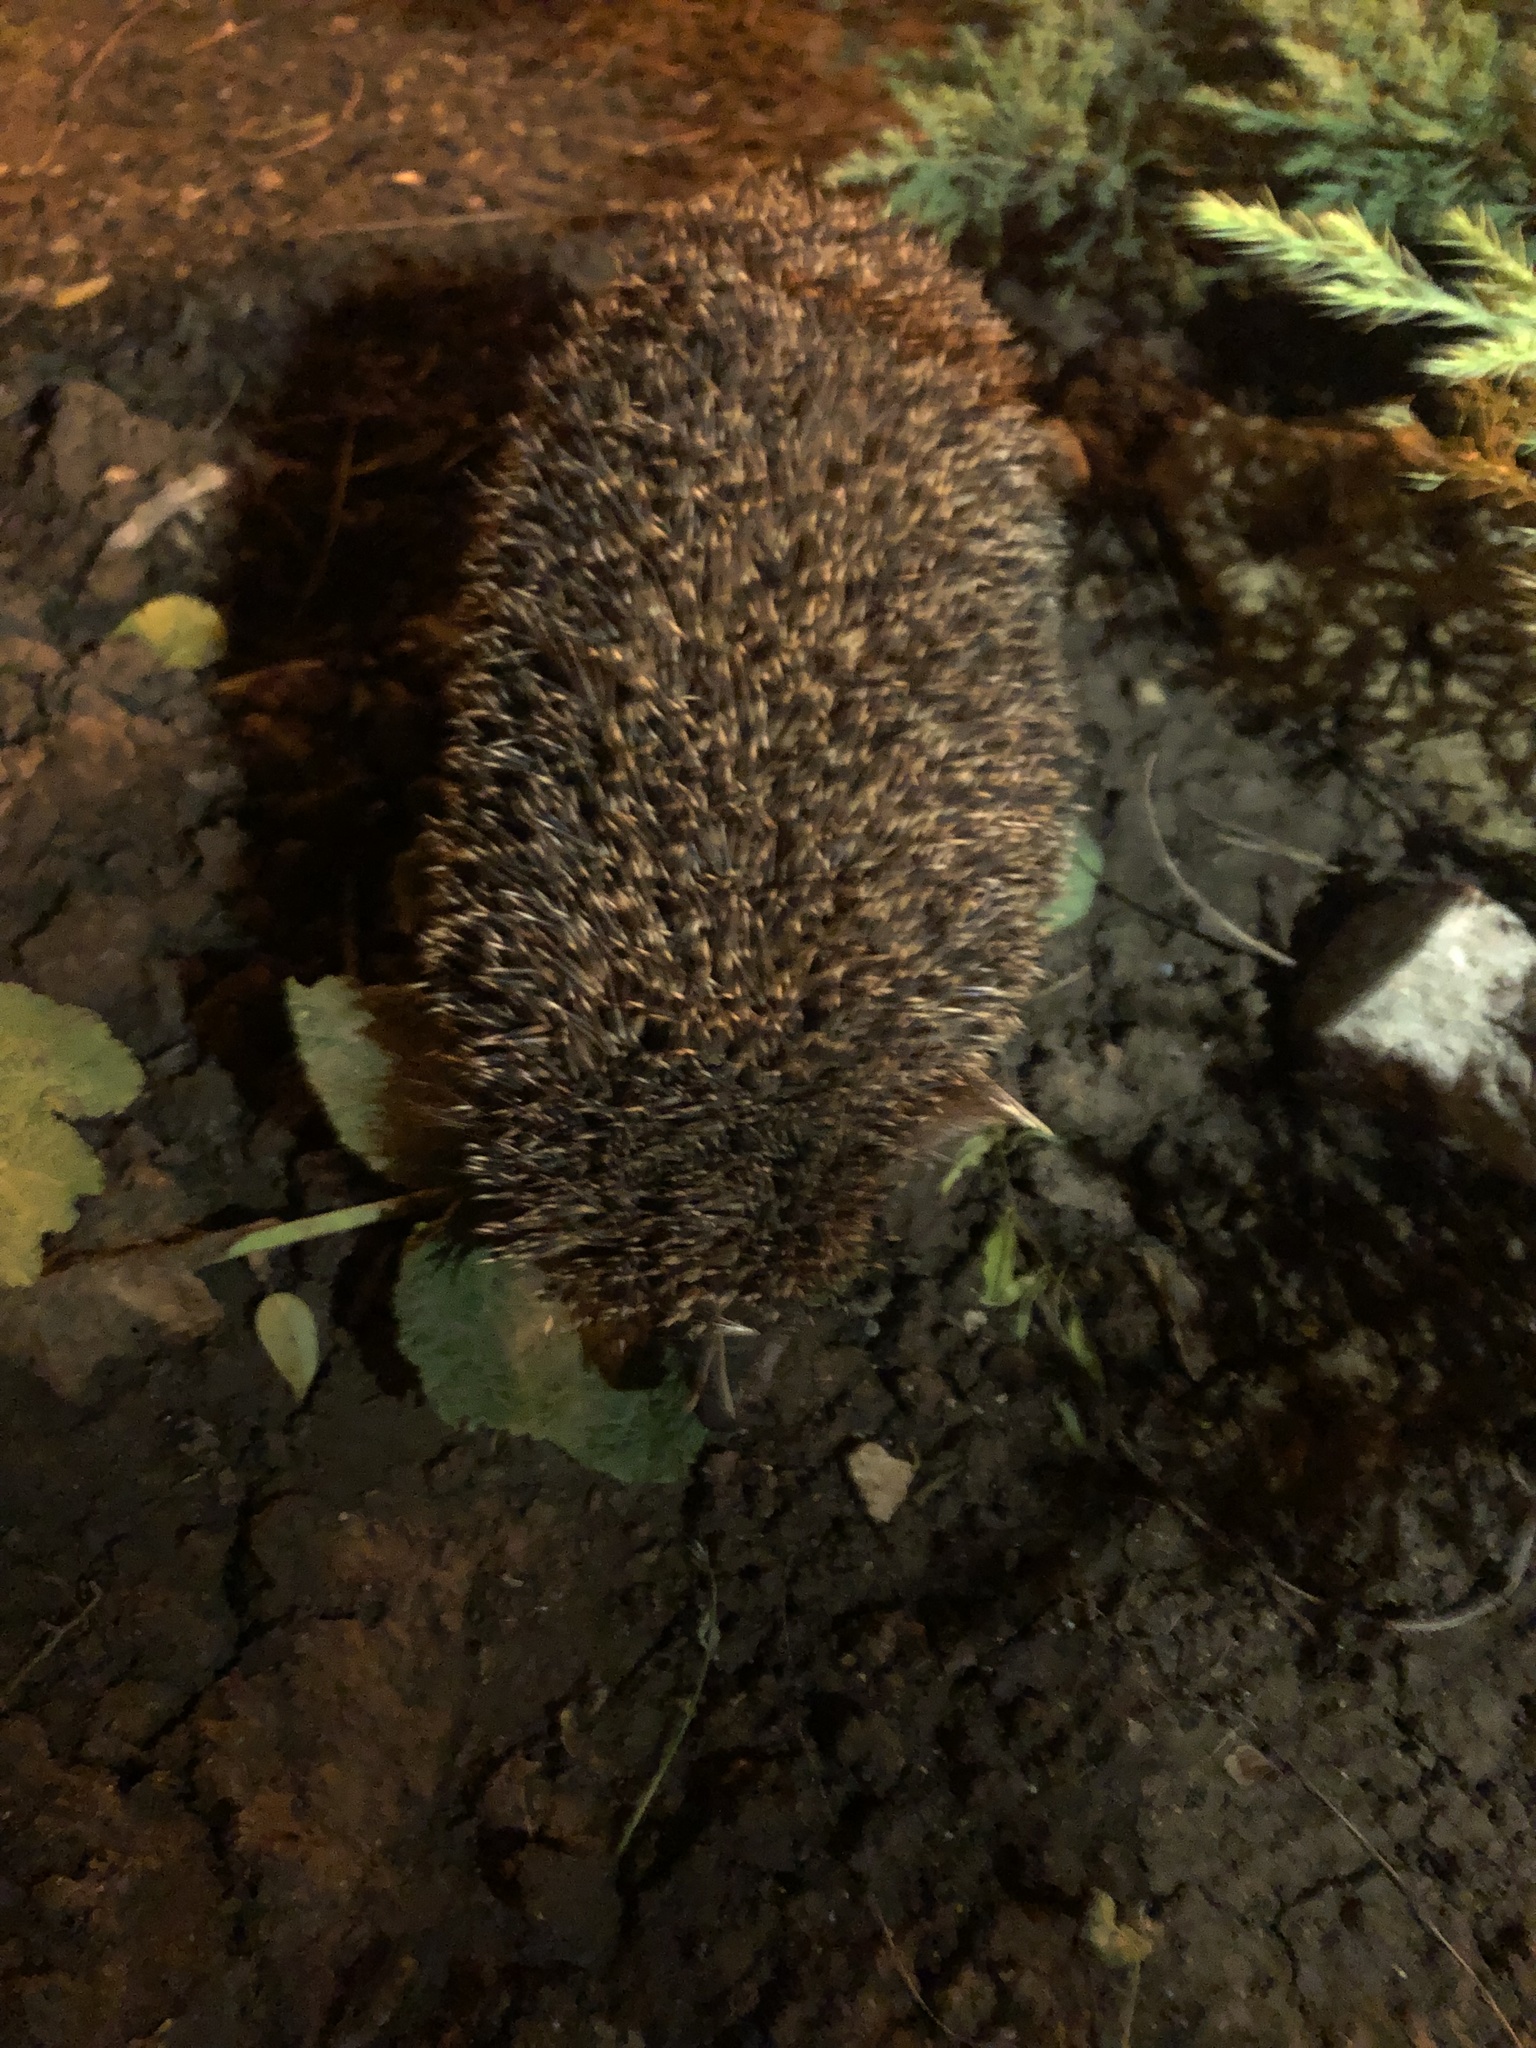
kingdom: Animalia
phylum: Chordata
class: Mammalia
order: Erinaceomorpha
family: Erinaceidae
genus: Erinaceus
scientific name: Erinaceus roumanicus
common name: Northern white-breasted hedgehog
